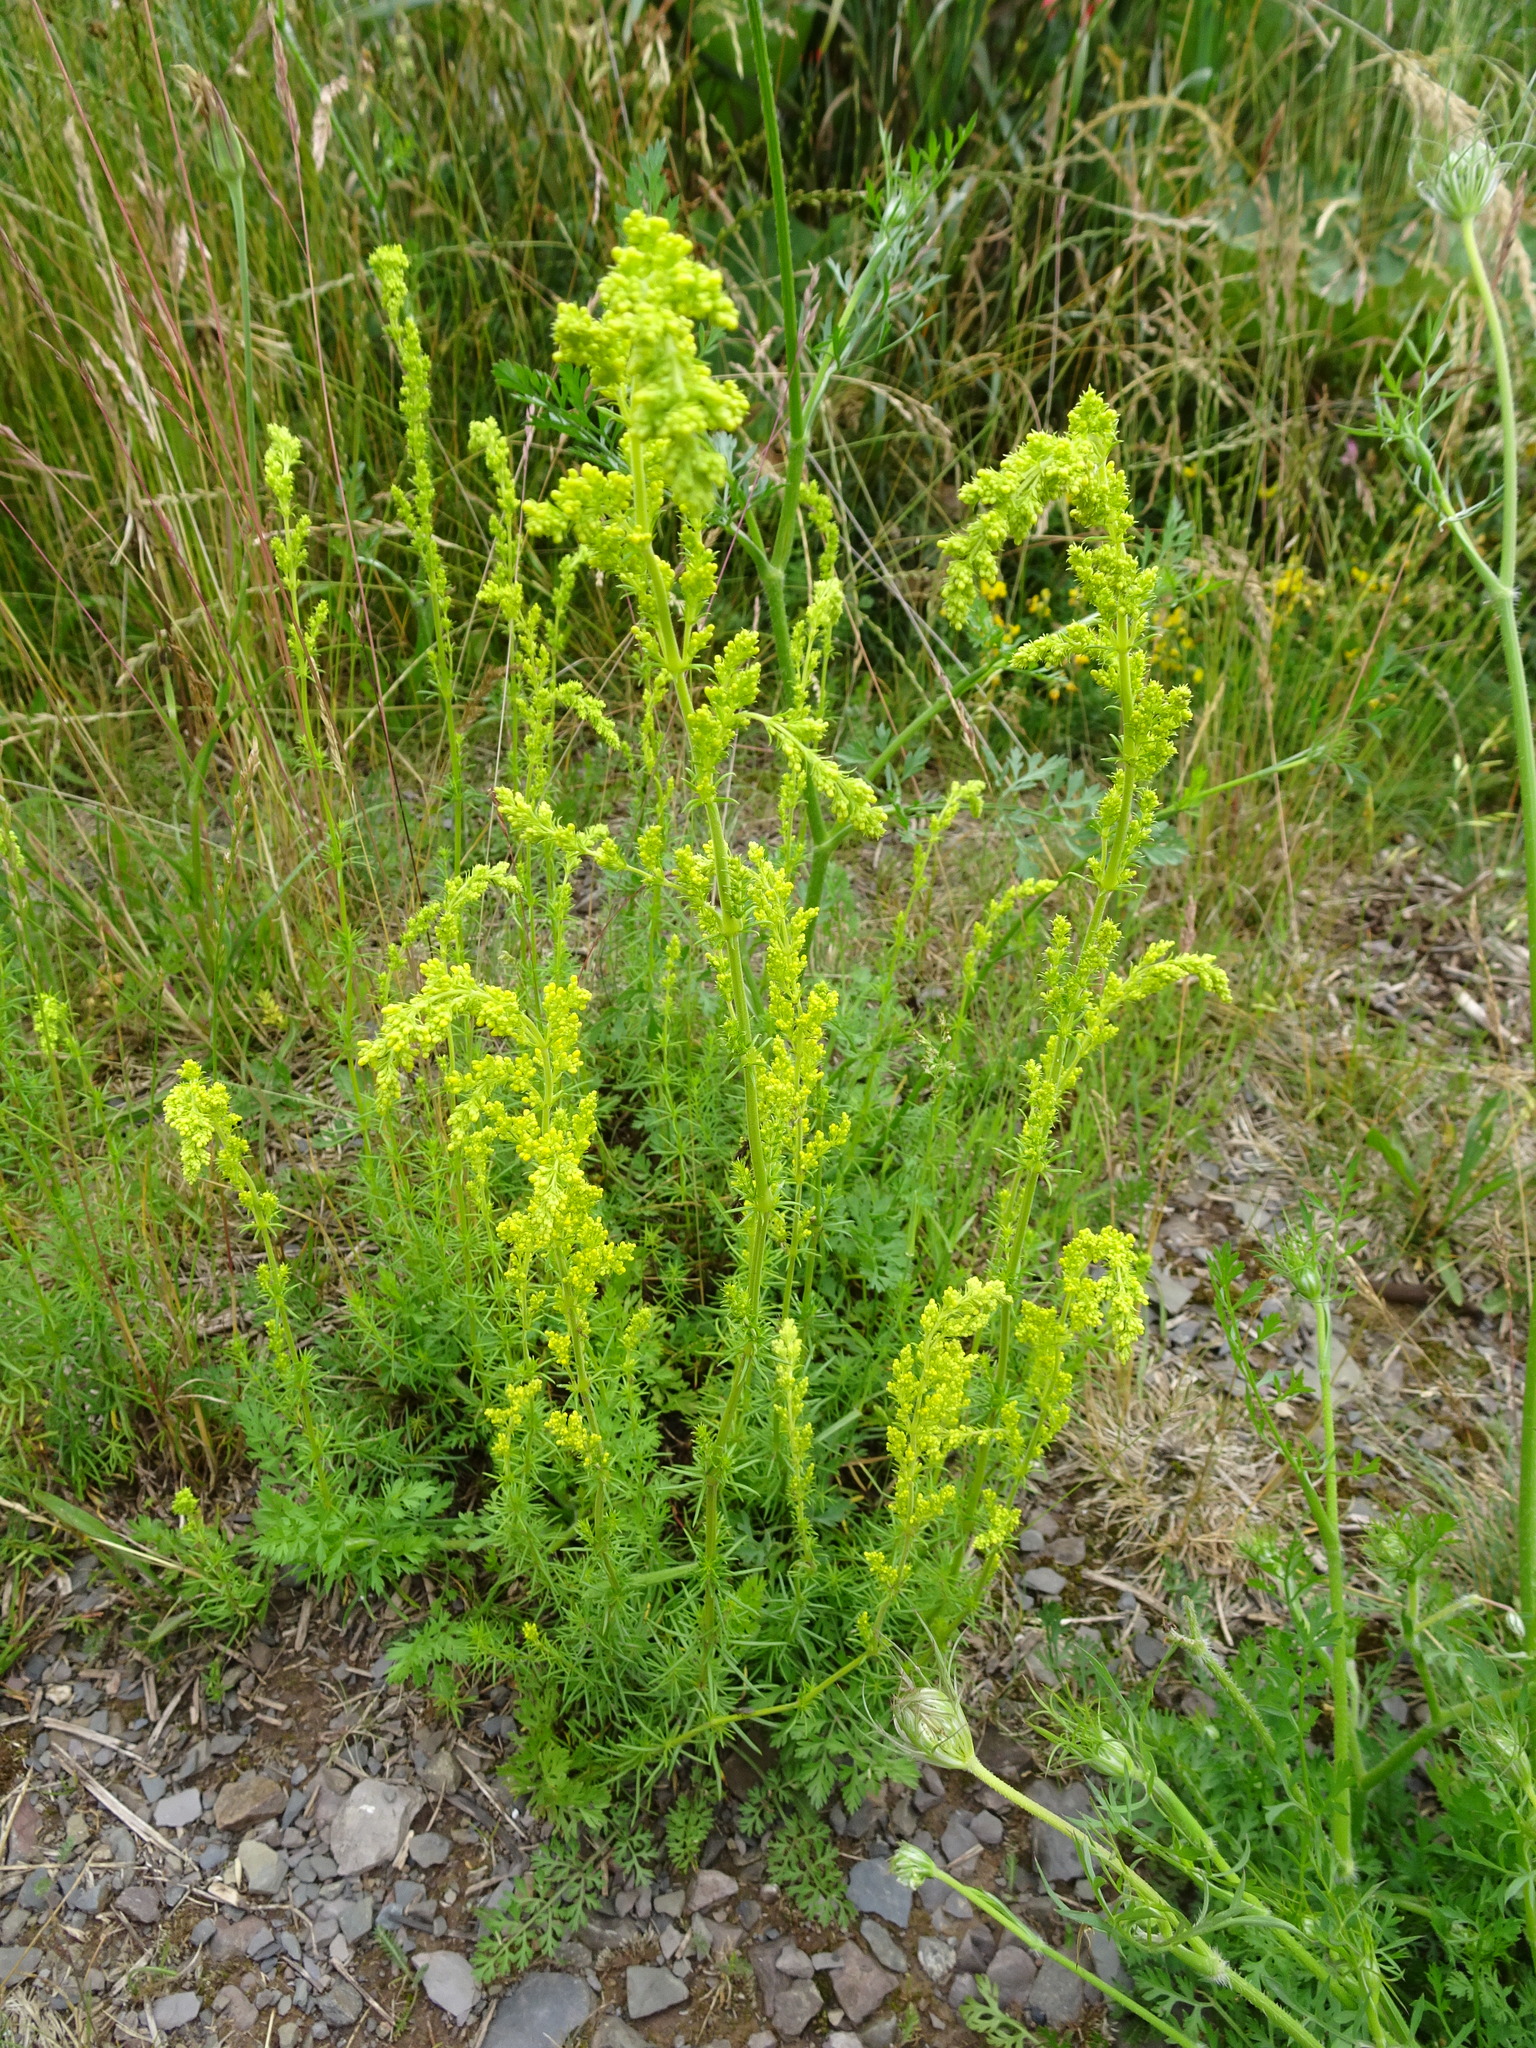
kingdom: Plantae
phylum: Tracheophyta
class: Magnoliopsida
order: Gentianales
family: Rubiaceae
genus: Galium
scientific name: Galium verum
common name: Lady's bedstraw
